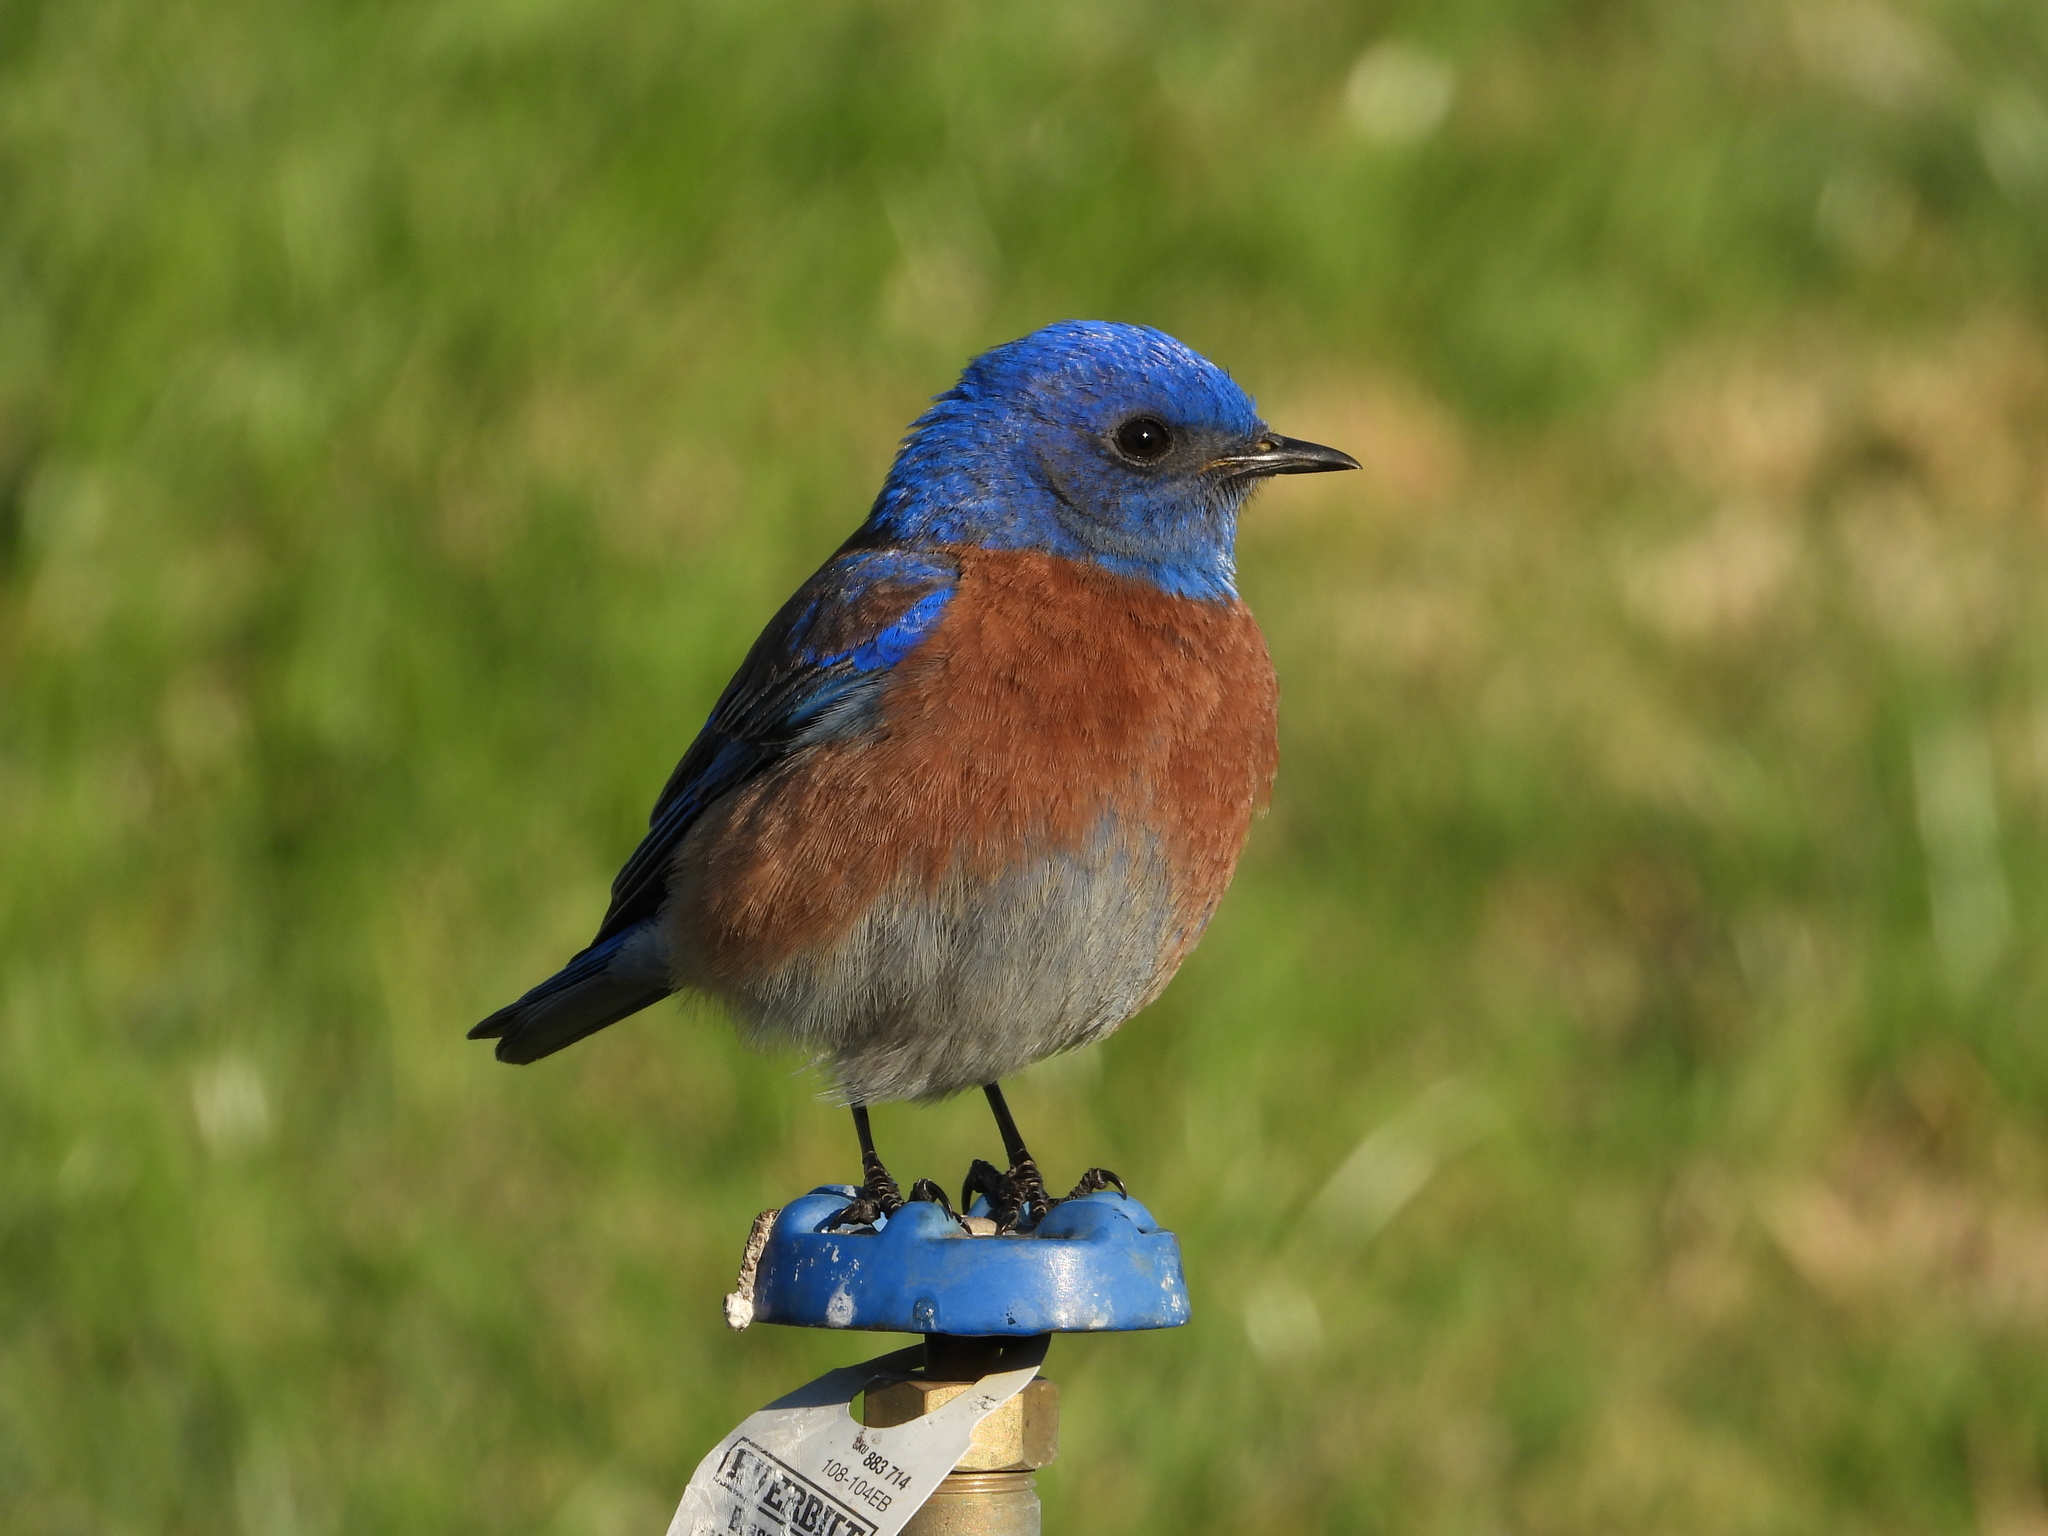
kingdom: Animalia
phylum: Chordata
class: Aves
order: Passeriformes
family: Turdidae
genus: Sialia
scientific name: Sialia mexicana
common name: Western bluebird
